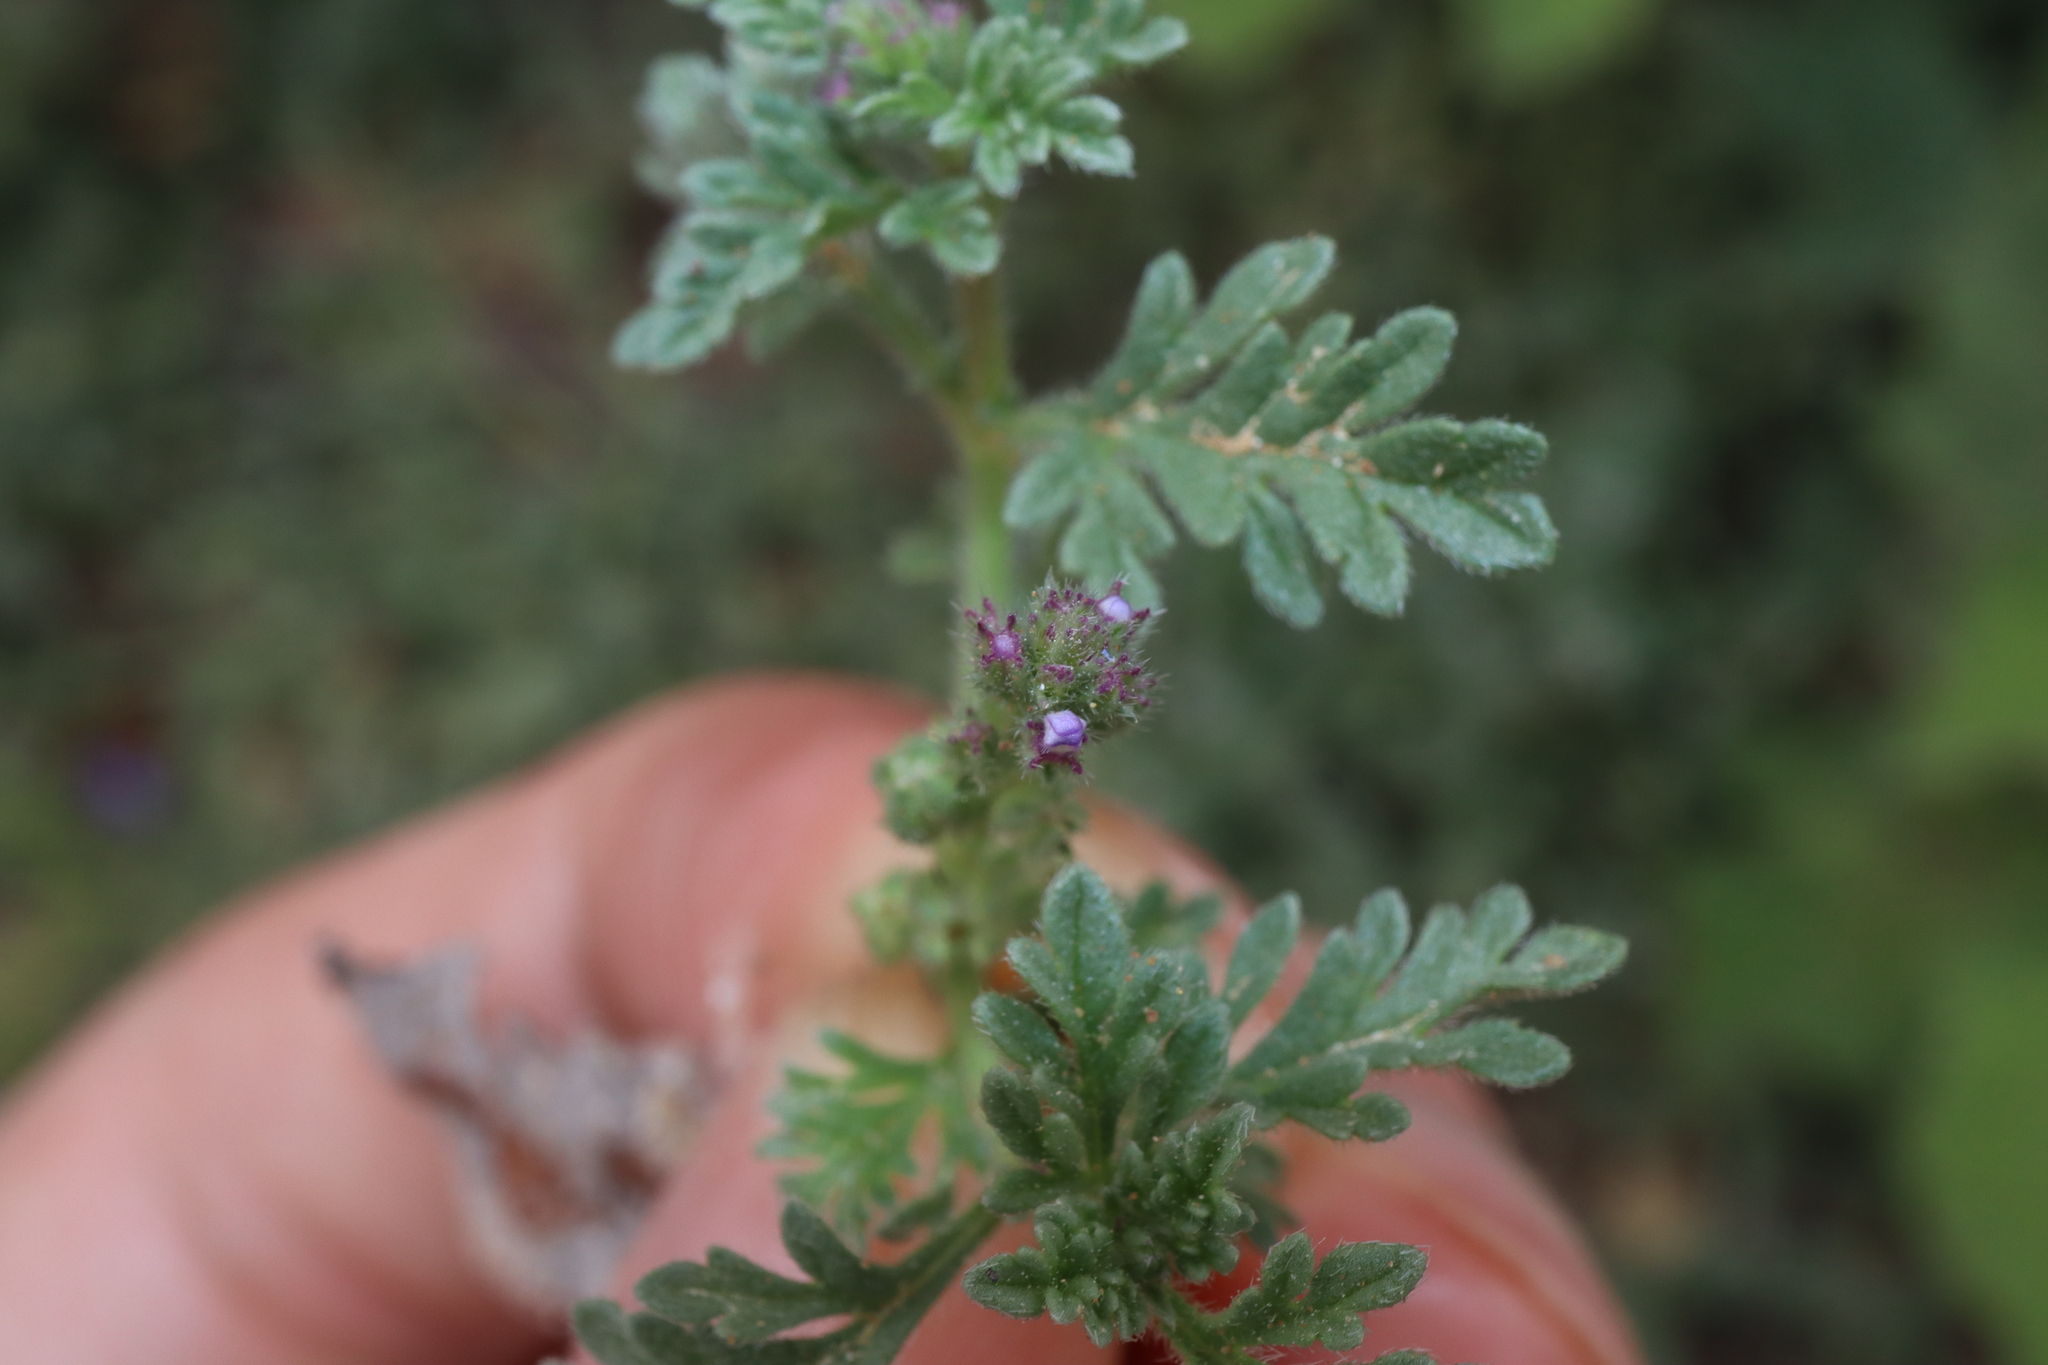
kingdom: Plantae
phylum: Tracheophyta
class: Magnoliopsida
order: Lamiales
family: Verbenaceae
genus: Verbena
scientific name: Verbena supina
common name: Trailing vervain
